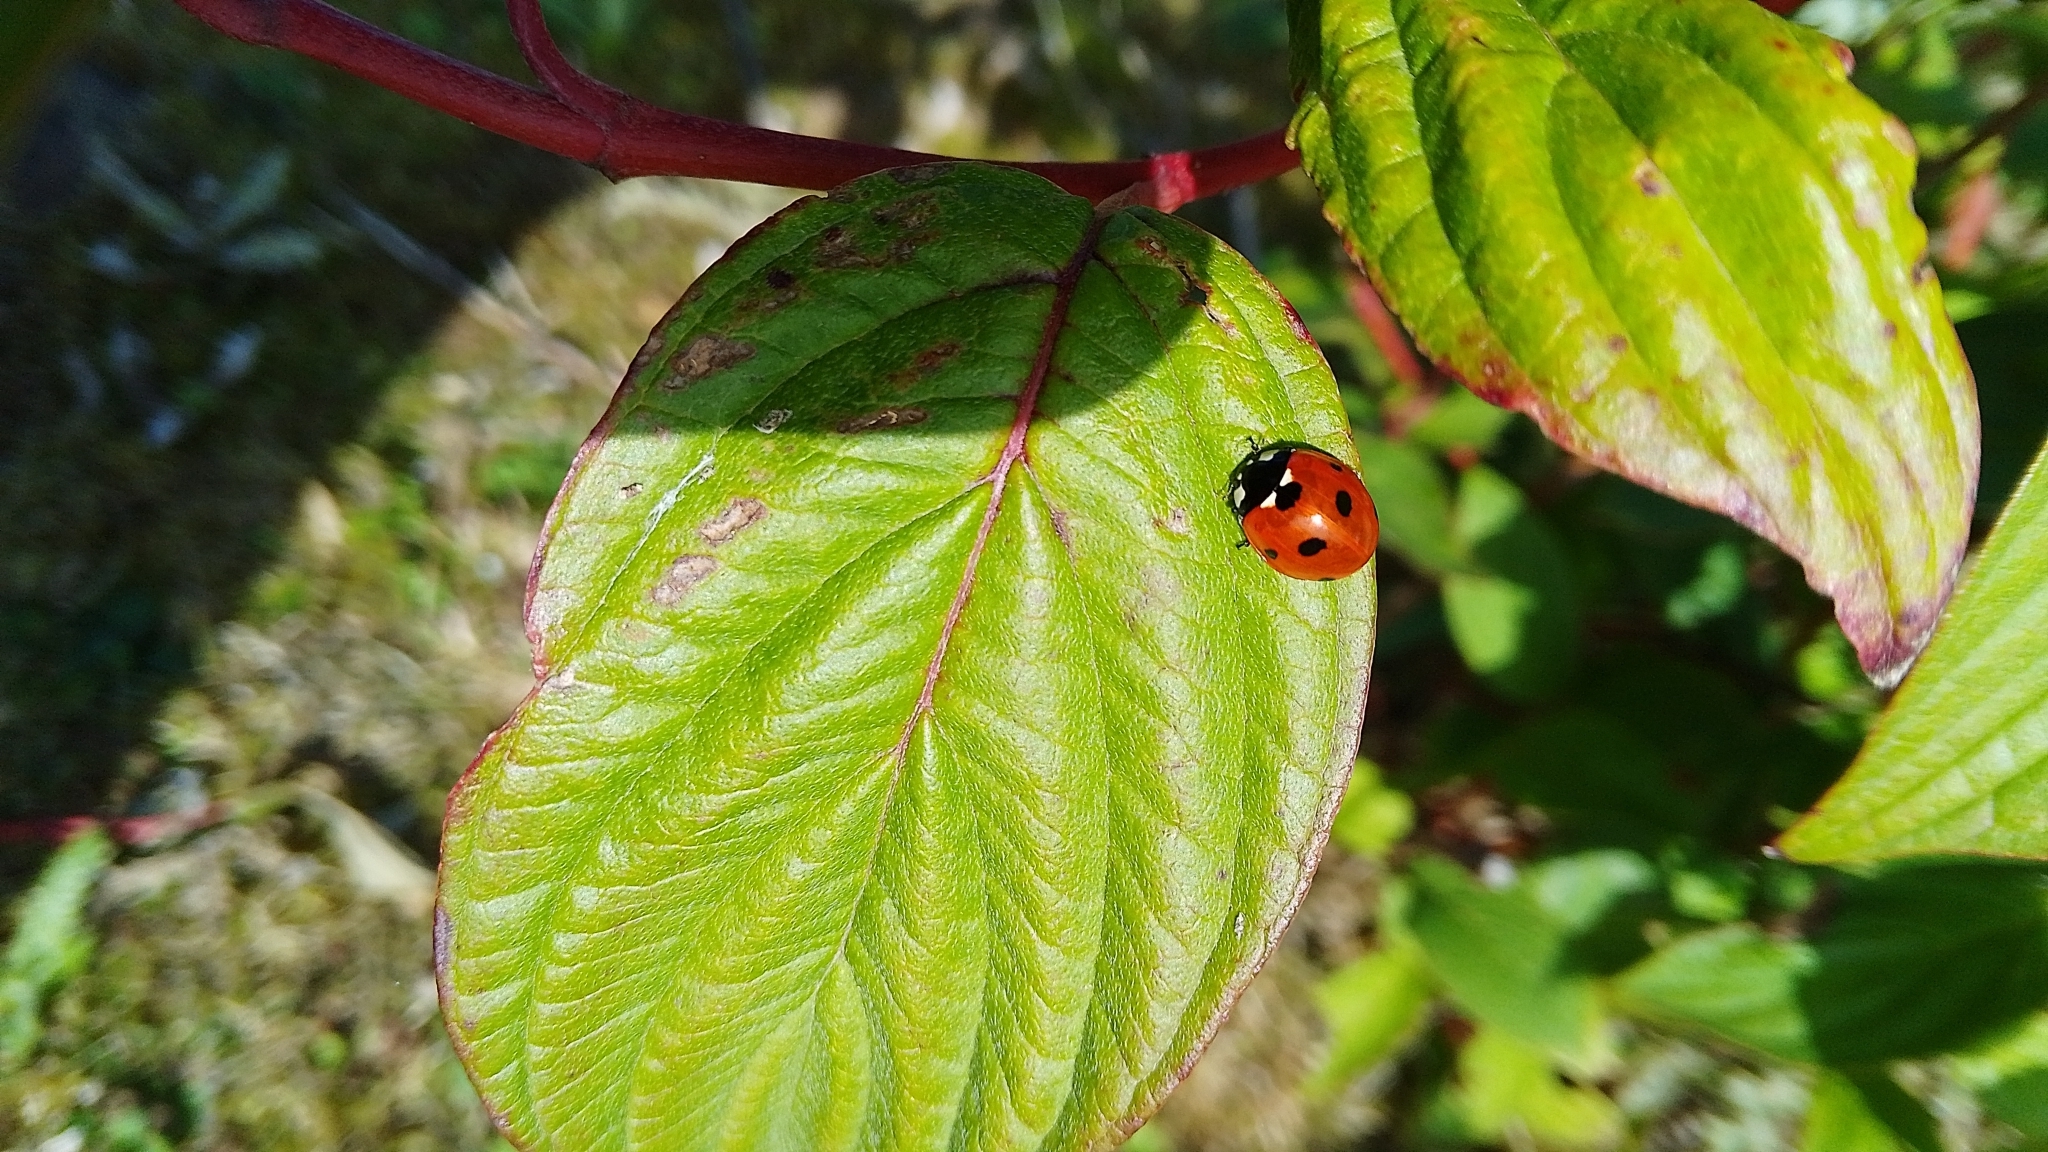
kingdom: Animalia
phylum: Arthropoda
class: Insecta
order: Coleoptera
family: Coccinellidae
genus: Coccinella
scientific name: Coccinella septempunctata
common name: Sevenspotted lady beetle
